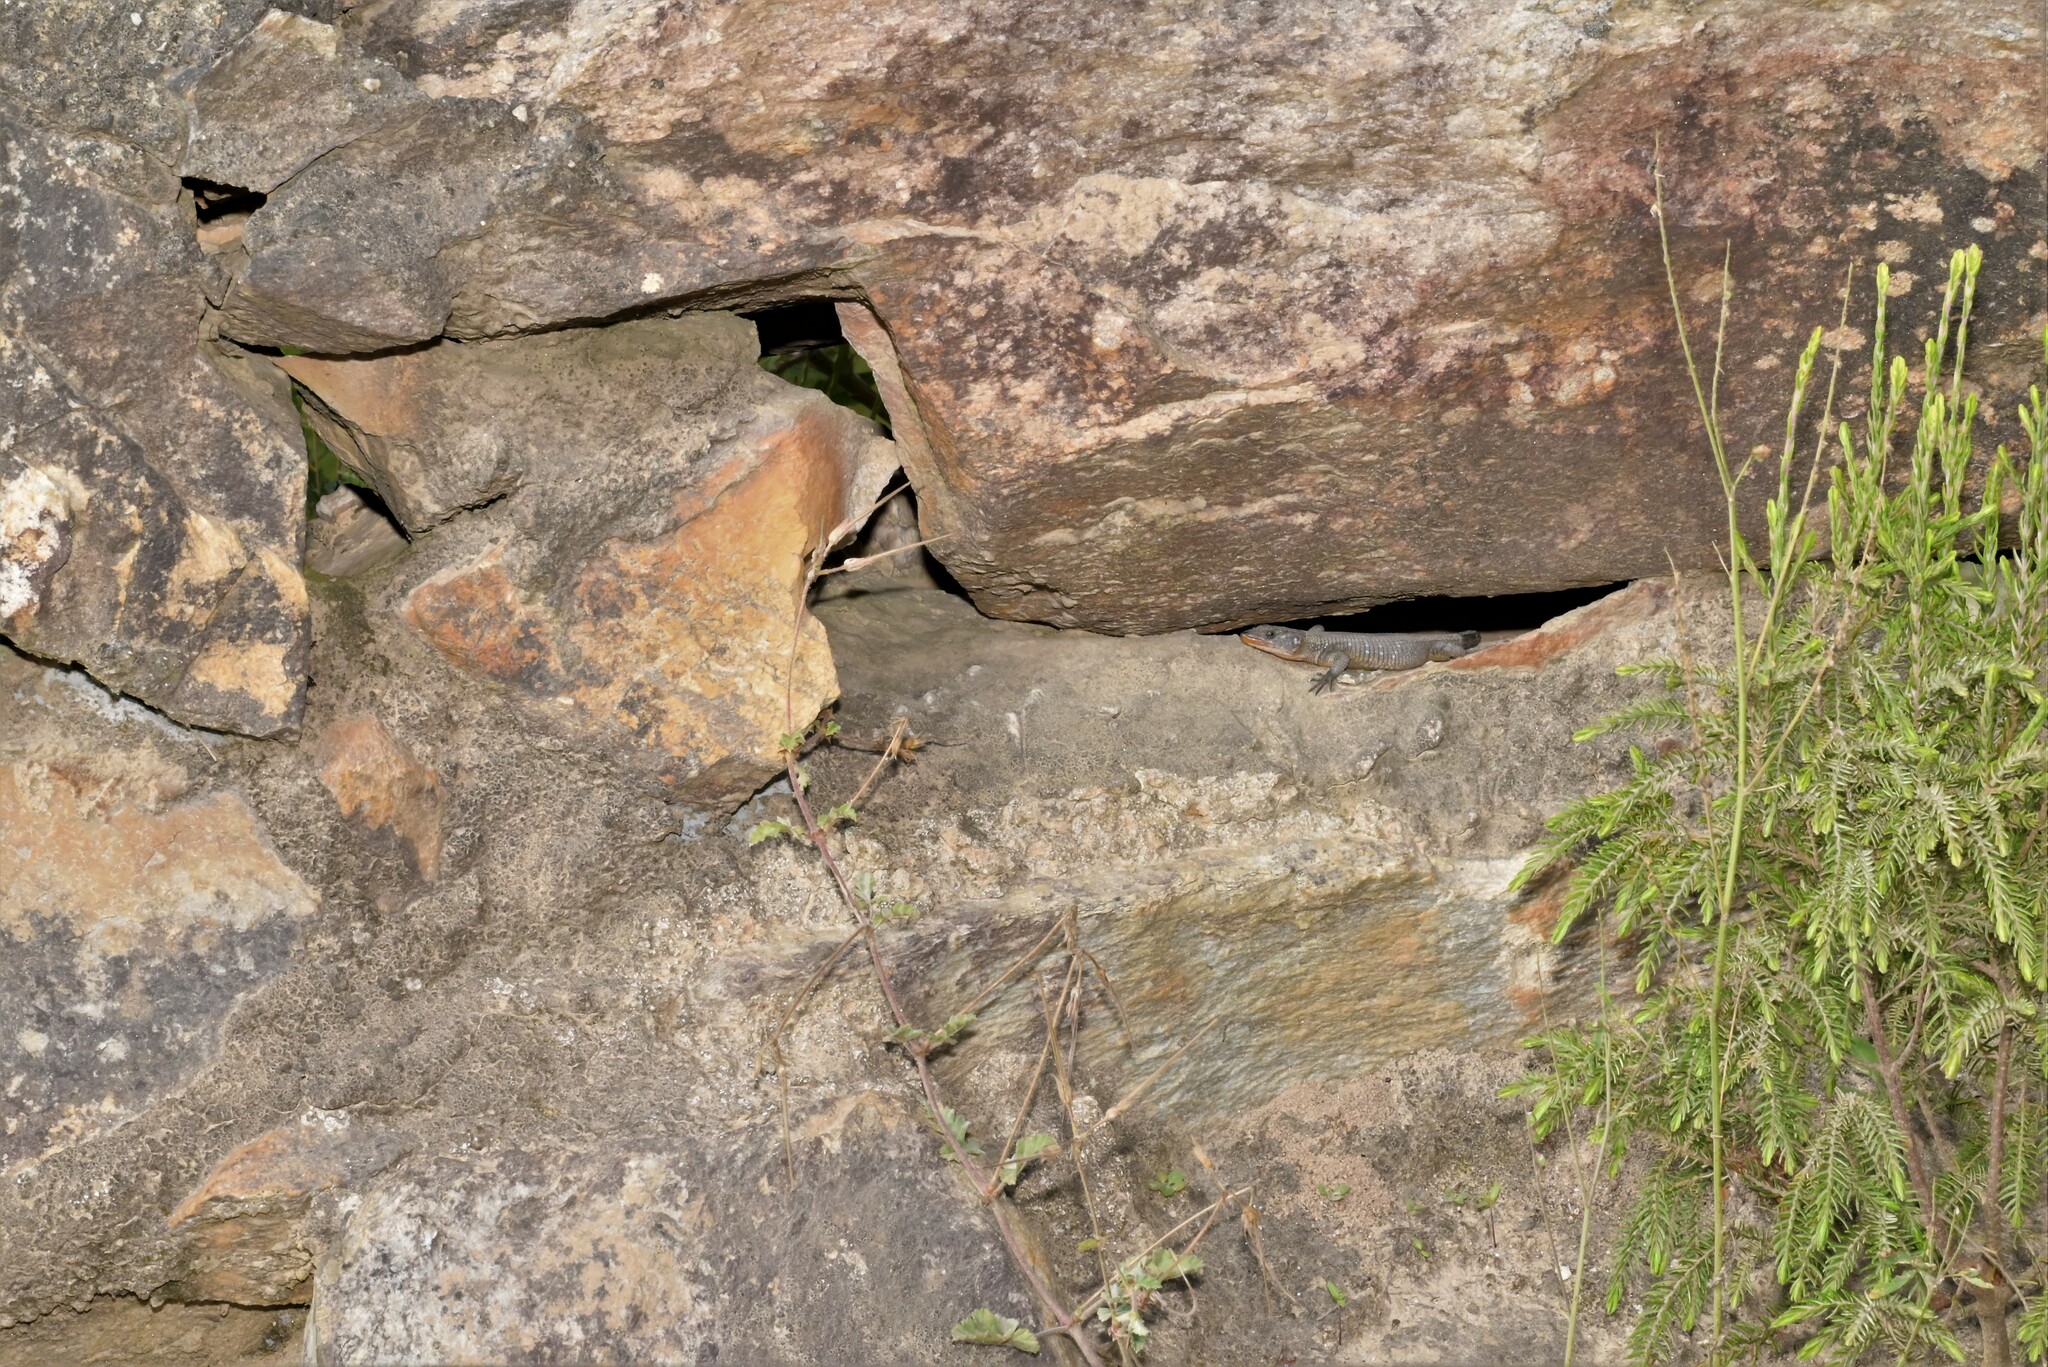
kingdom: Animalia
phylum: Chordata
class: Squamata
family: Cordylidae
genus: Ninurta
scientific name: Ninurta coeruleopunctatus
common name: Blue-spotted girdled lizard
